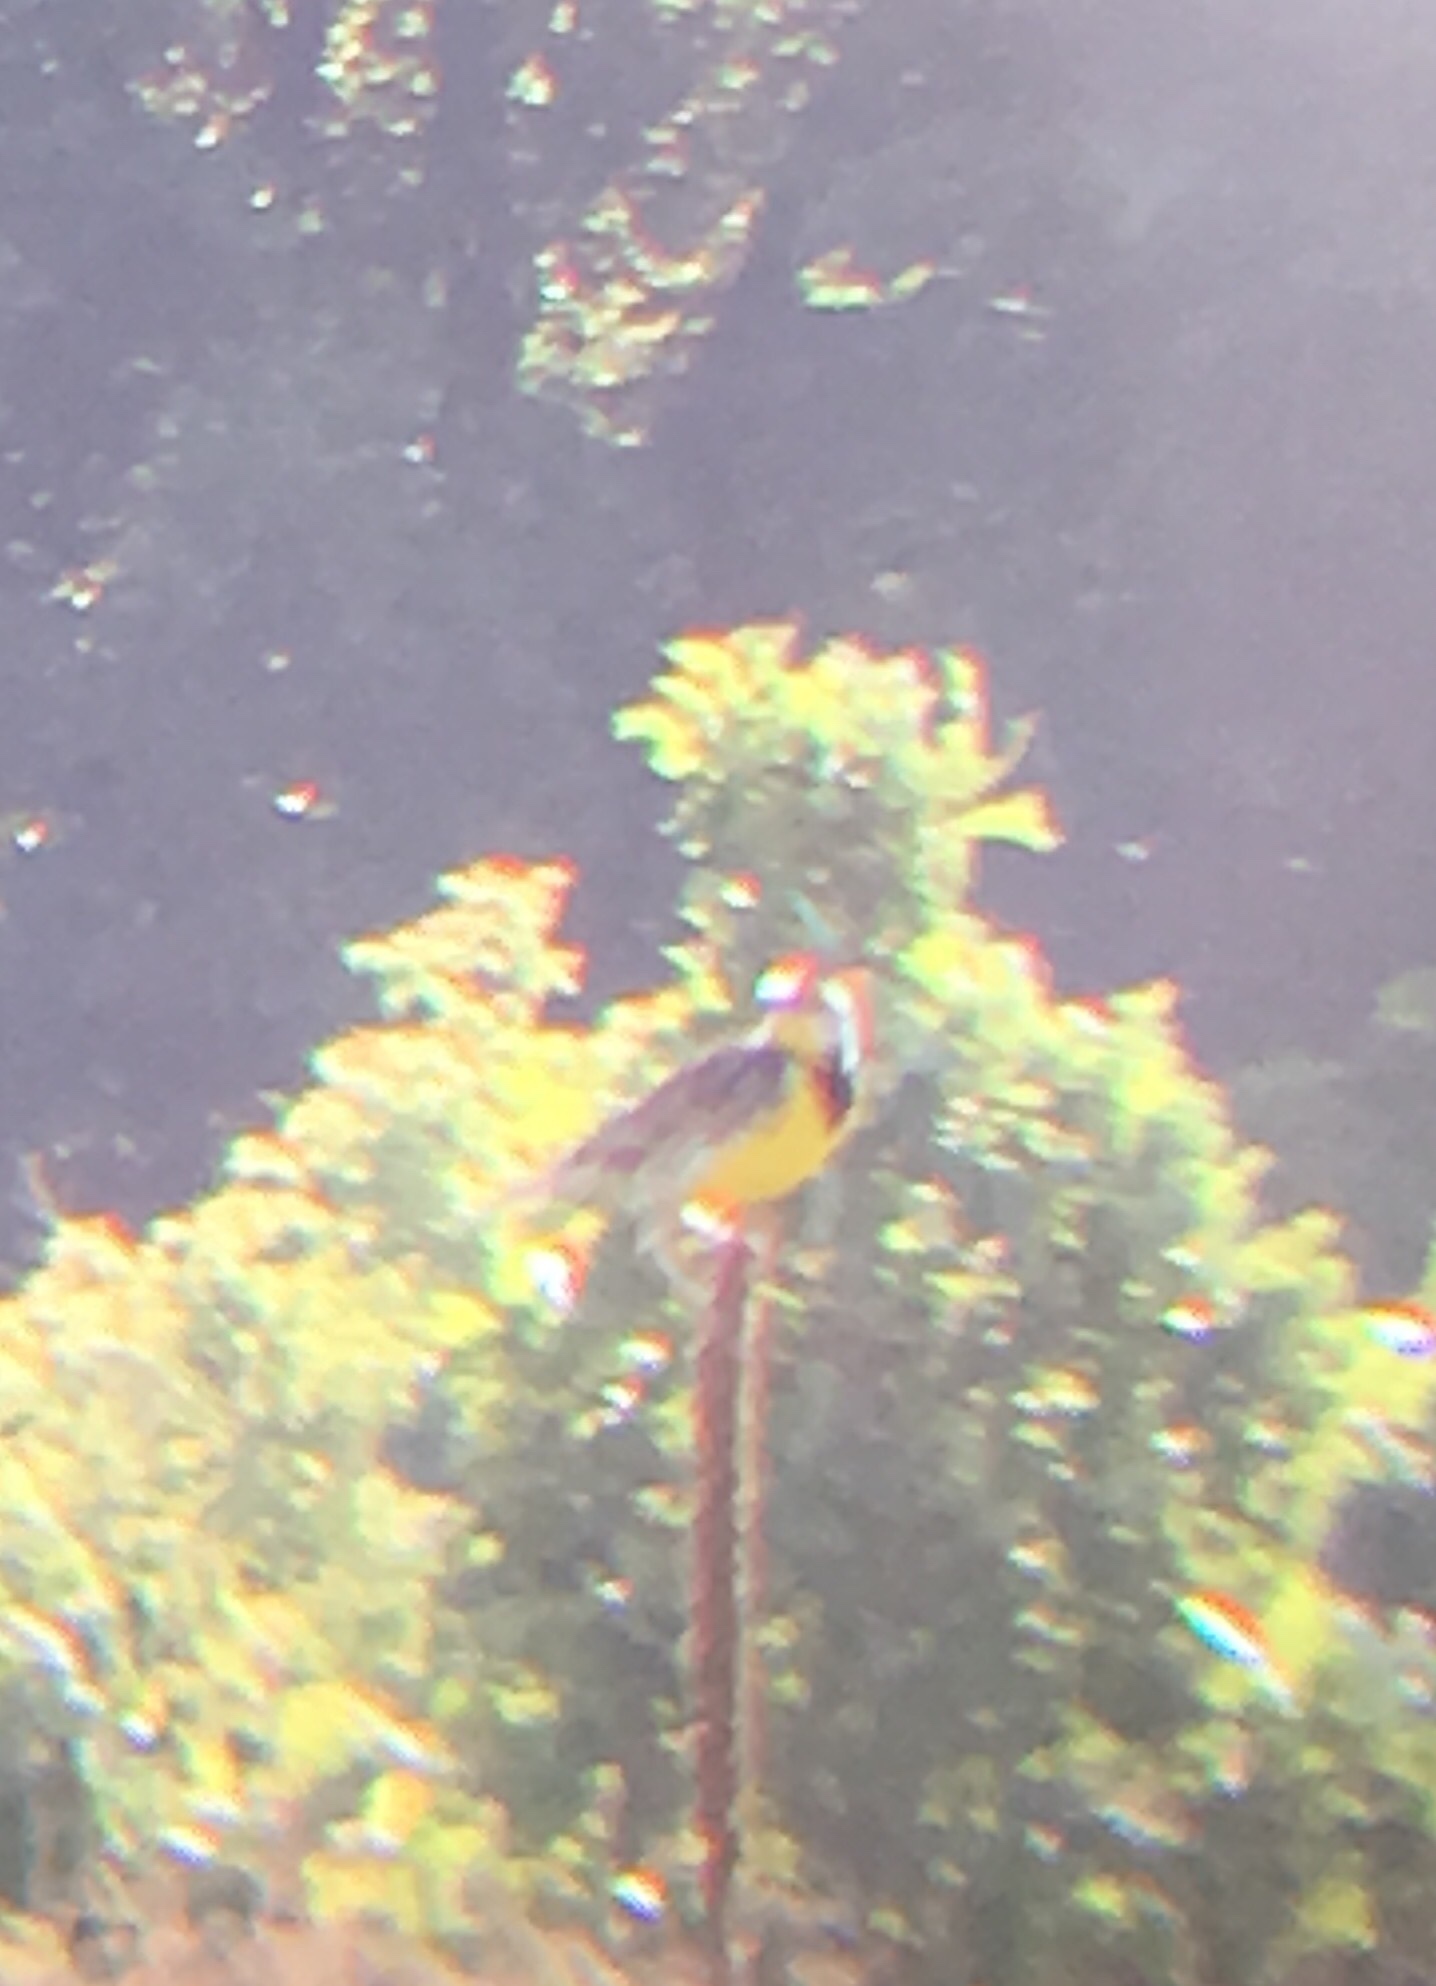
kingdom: Animalia
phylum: Chordata
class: Aves
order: Passeriformes
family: Icteridae
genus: Sturnella
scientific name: Sturnella magna
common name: Eastern meadowlark
